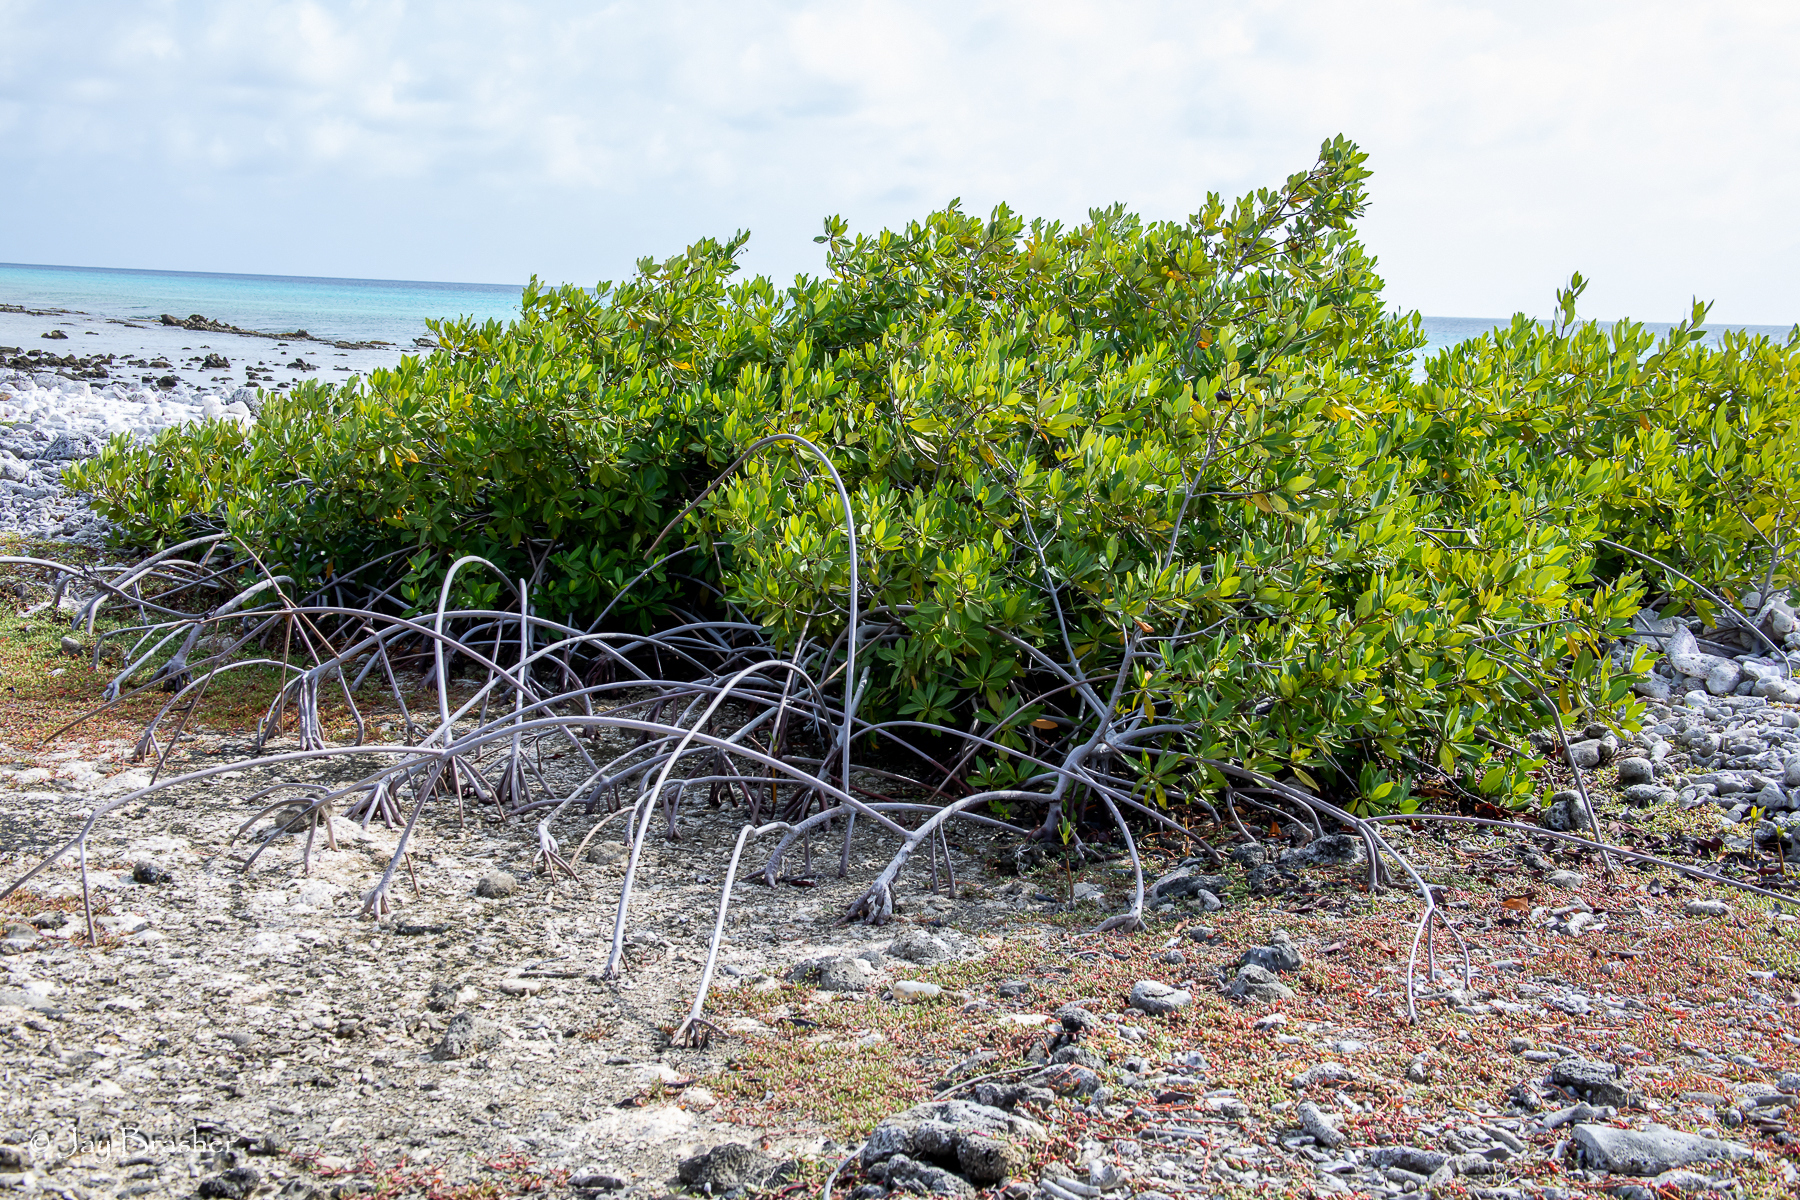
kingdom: Plantae
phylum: Tracheophyta
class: Magnoliopsida
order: Malpighiales
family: Rhizophoraceae
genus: Rhizophora
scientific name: Rhizophora mangle
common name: Red mangrove
